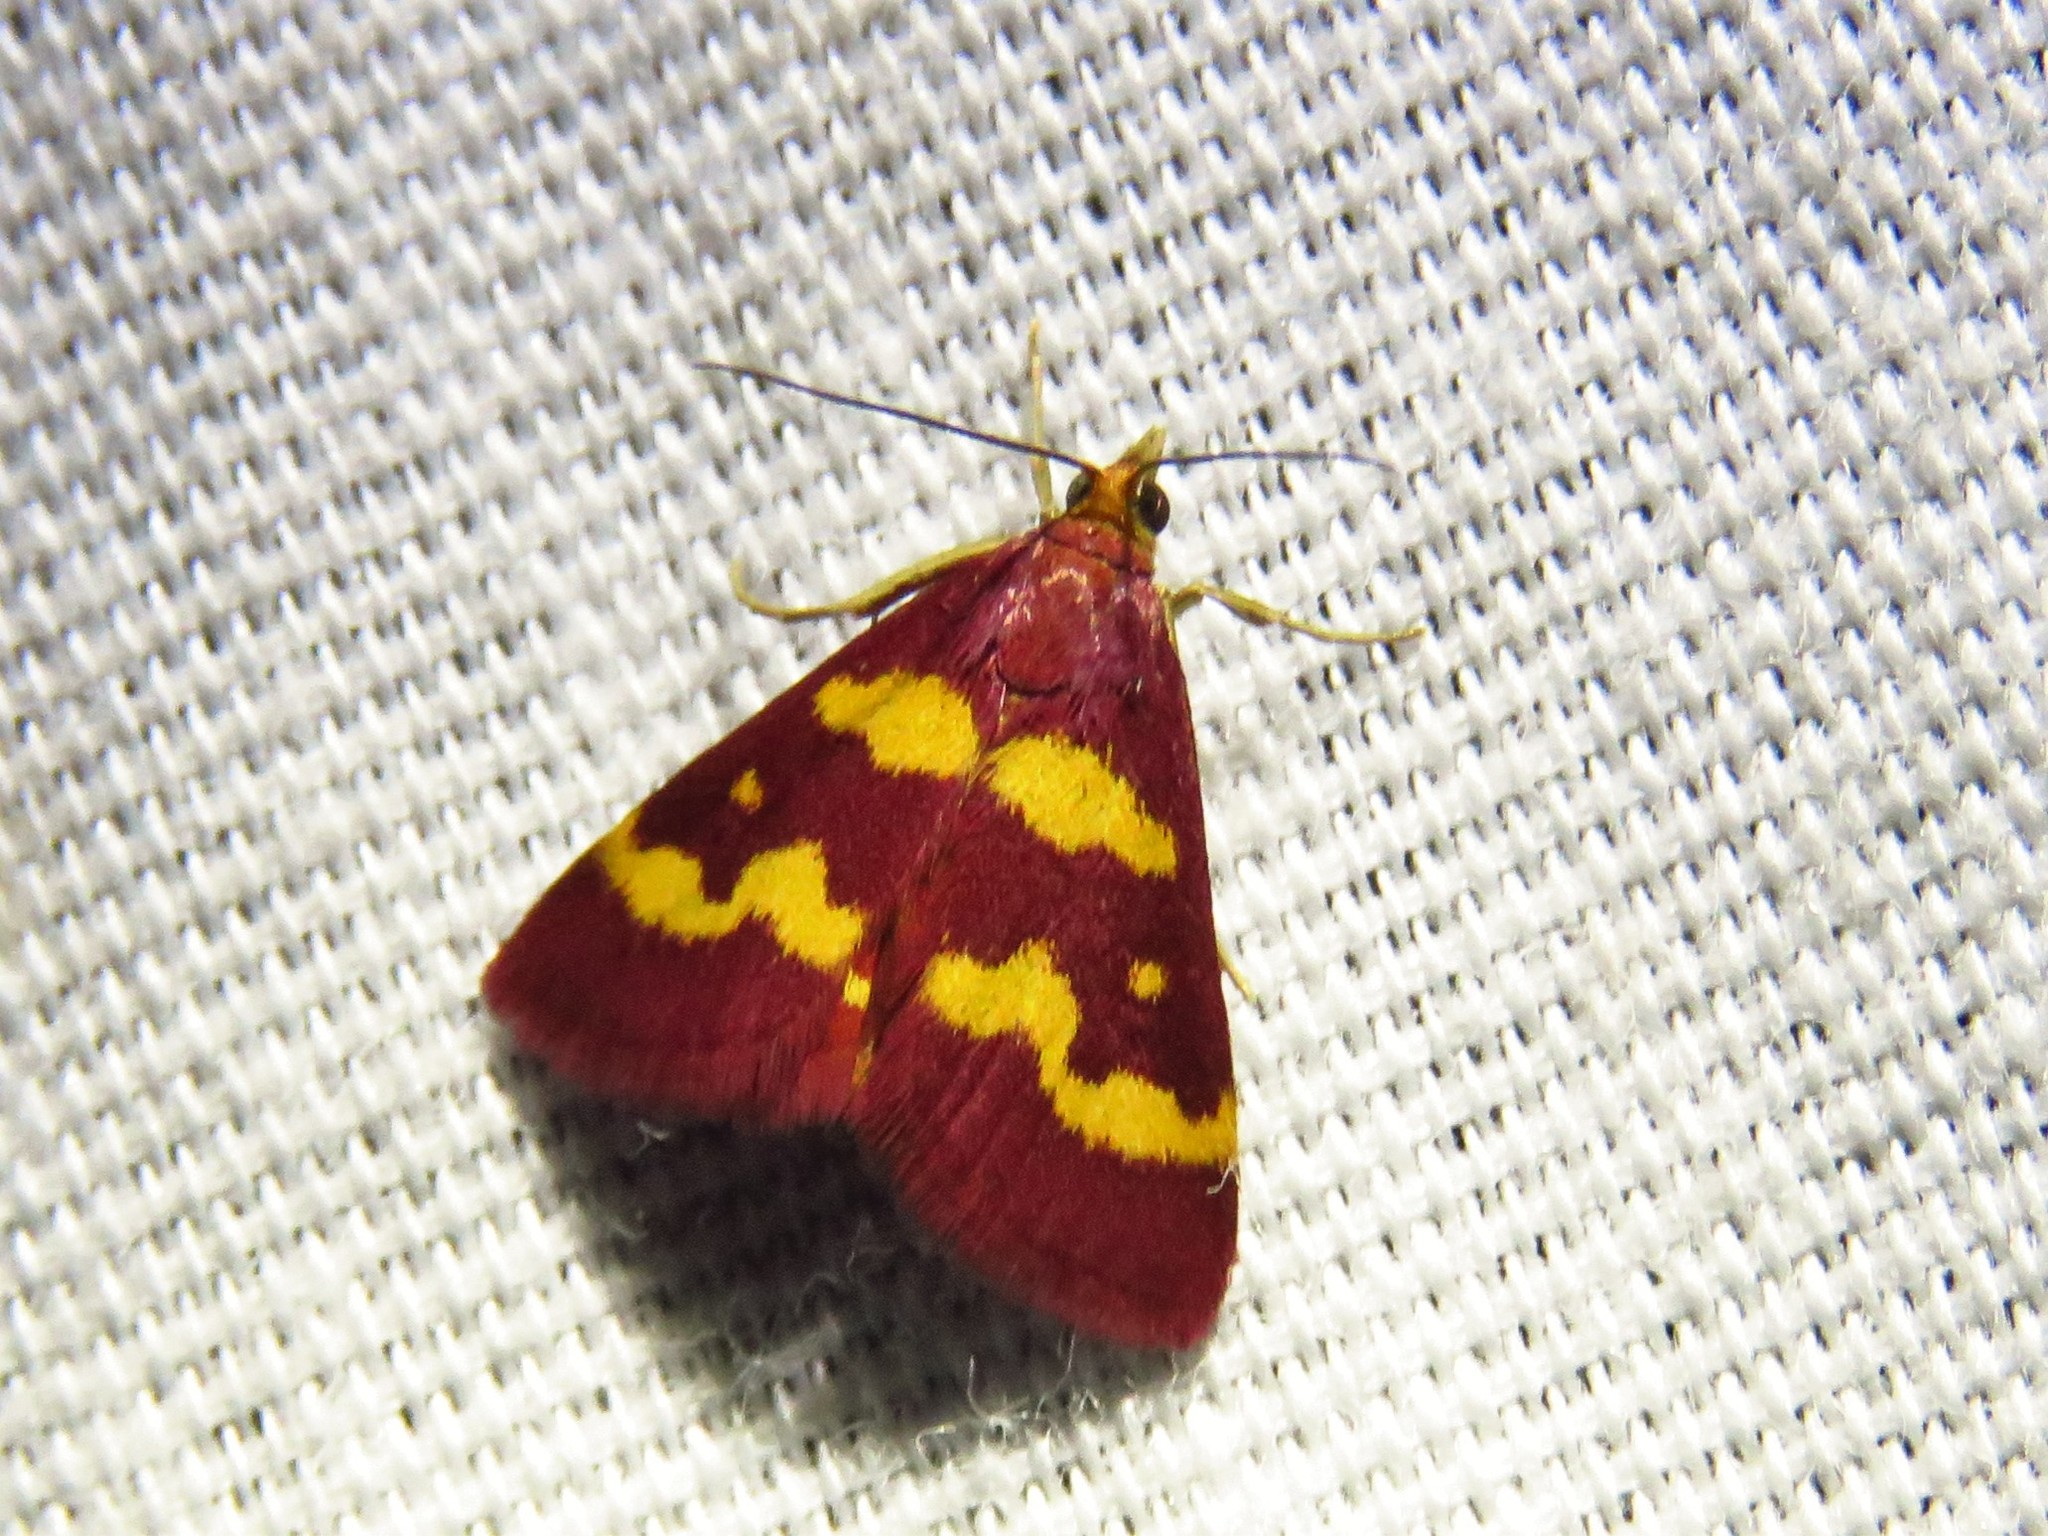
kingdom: Animalia
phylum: Arthropoda
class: Insecta
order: Lepidoptera
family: Crambidae
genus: Pyrausta
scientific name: Pyrausta tyralis
